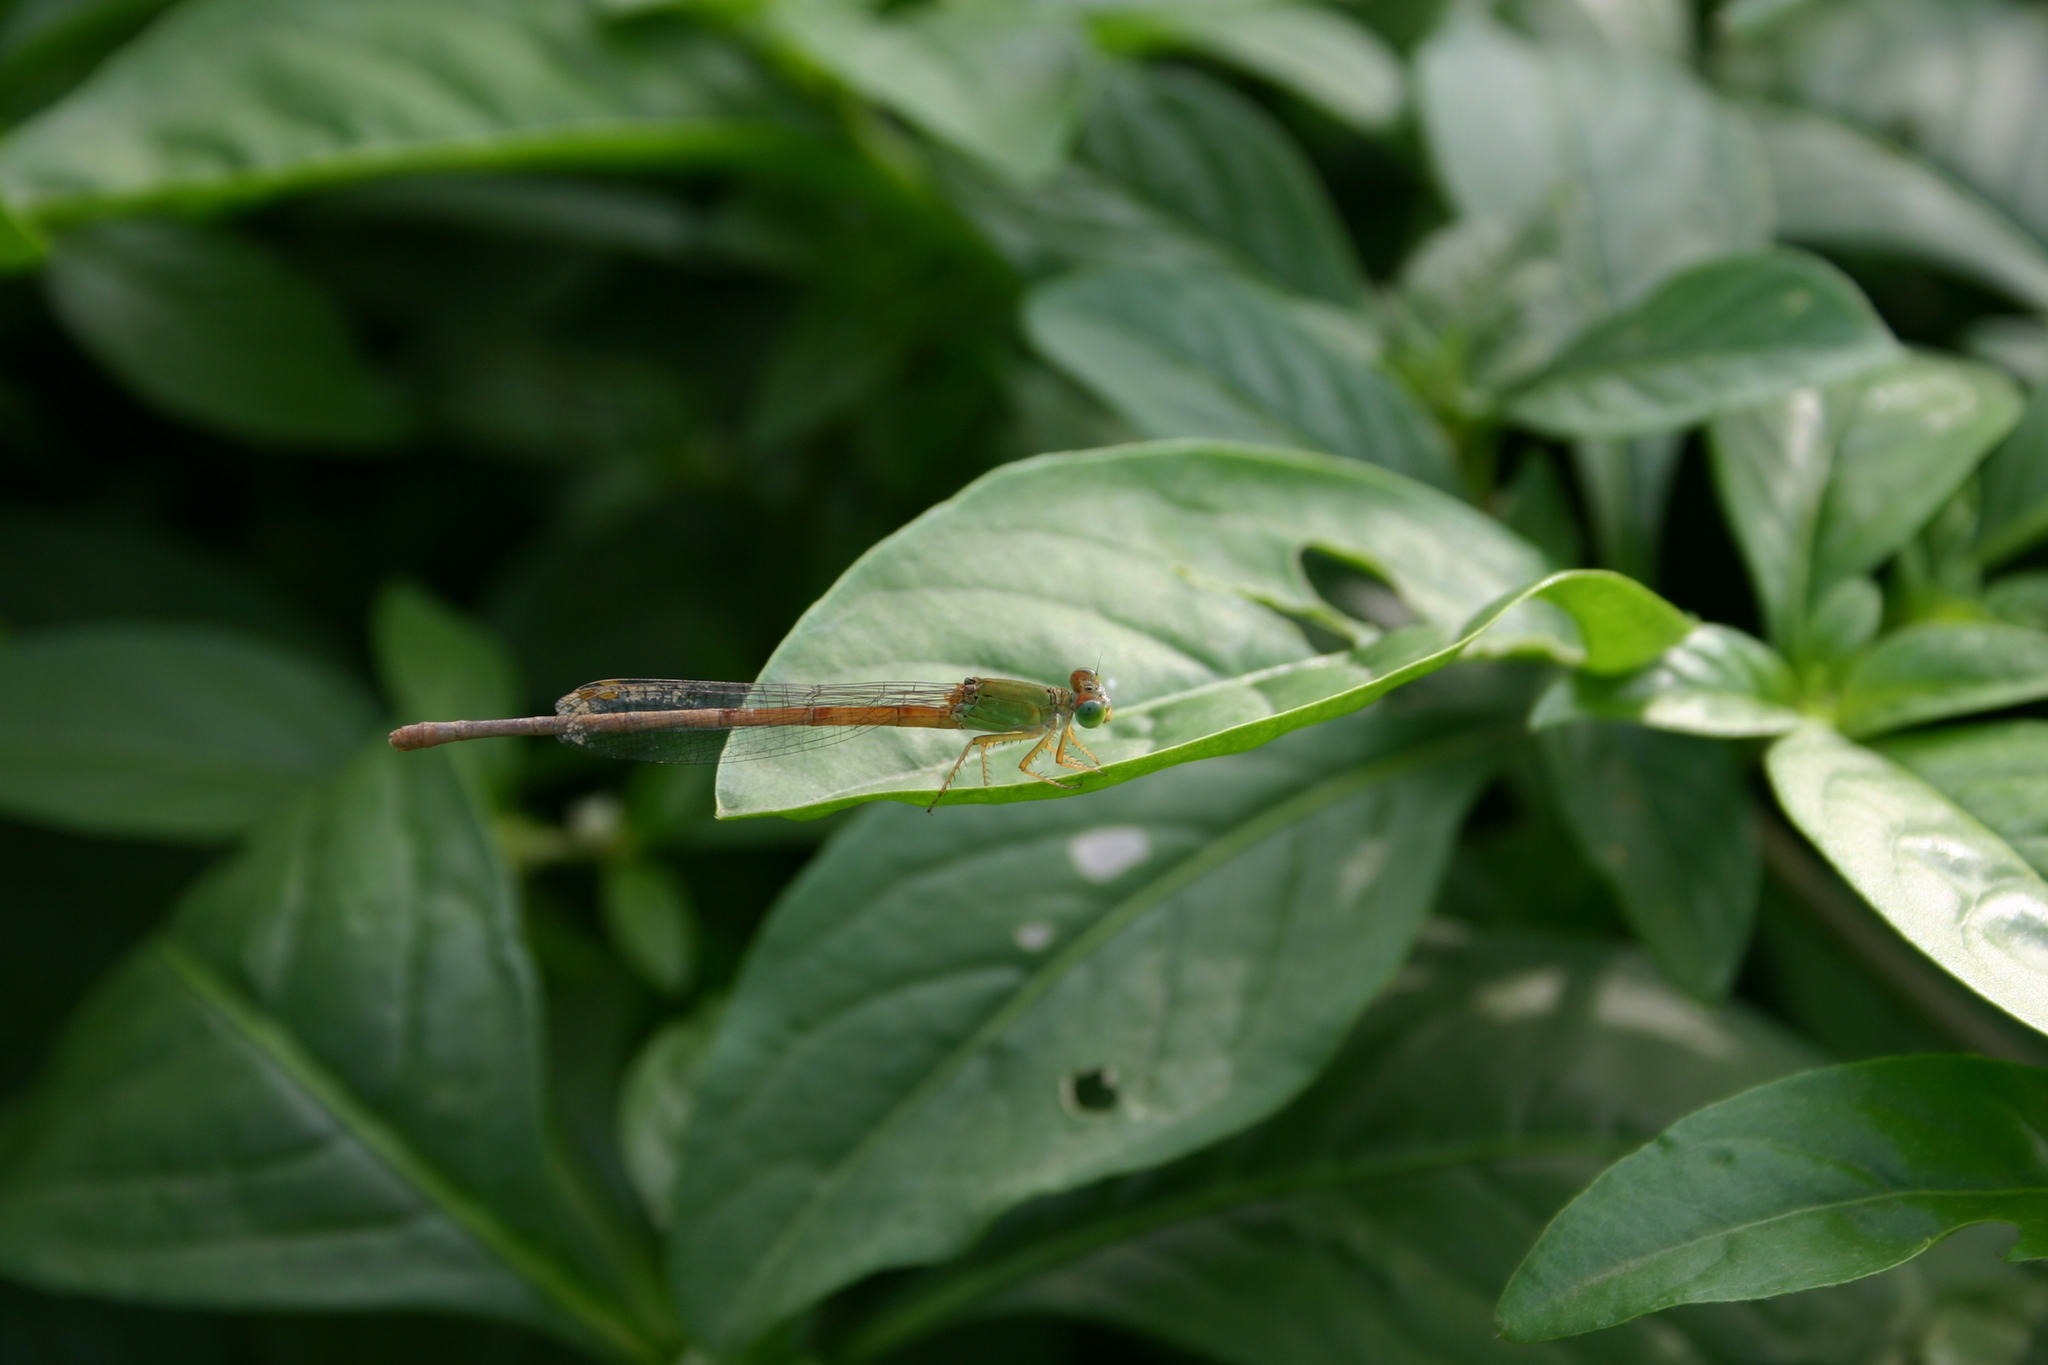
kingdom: Animalia
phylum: Arthropoda
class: Insecta
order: Odonata
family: Coenagrionidae
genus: Ceriagrion
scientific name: Ceriagrion coromandelianum
